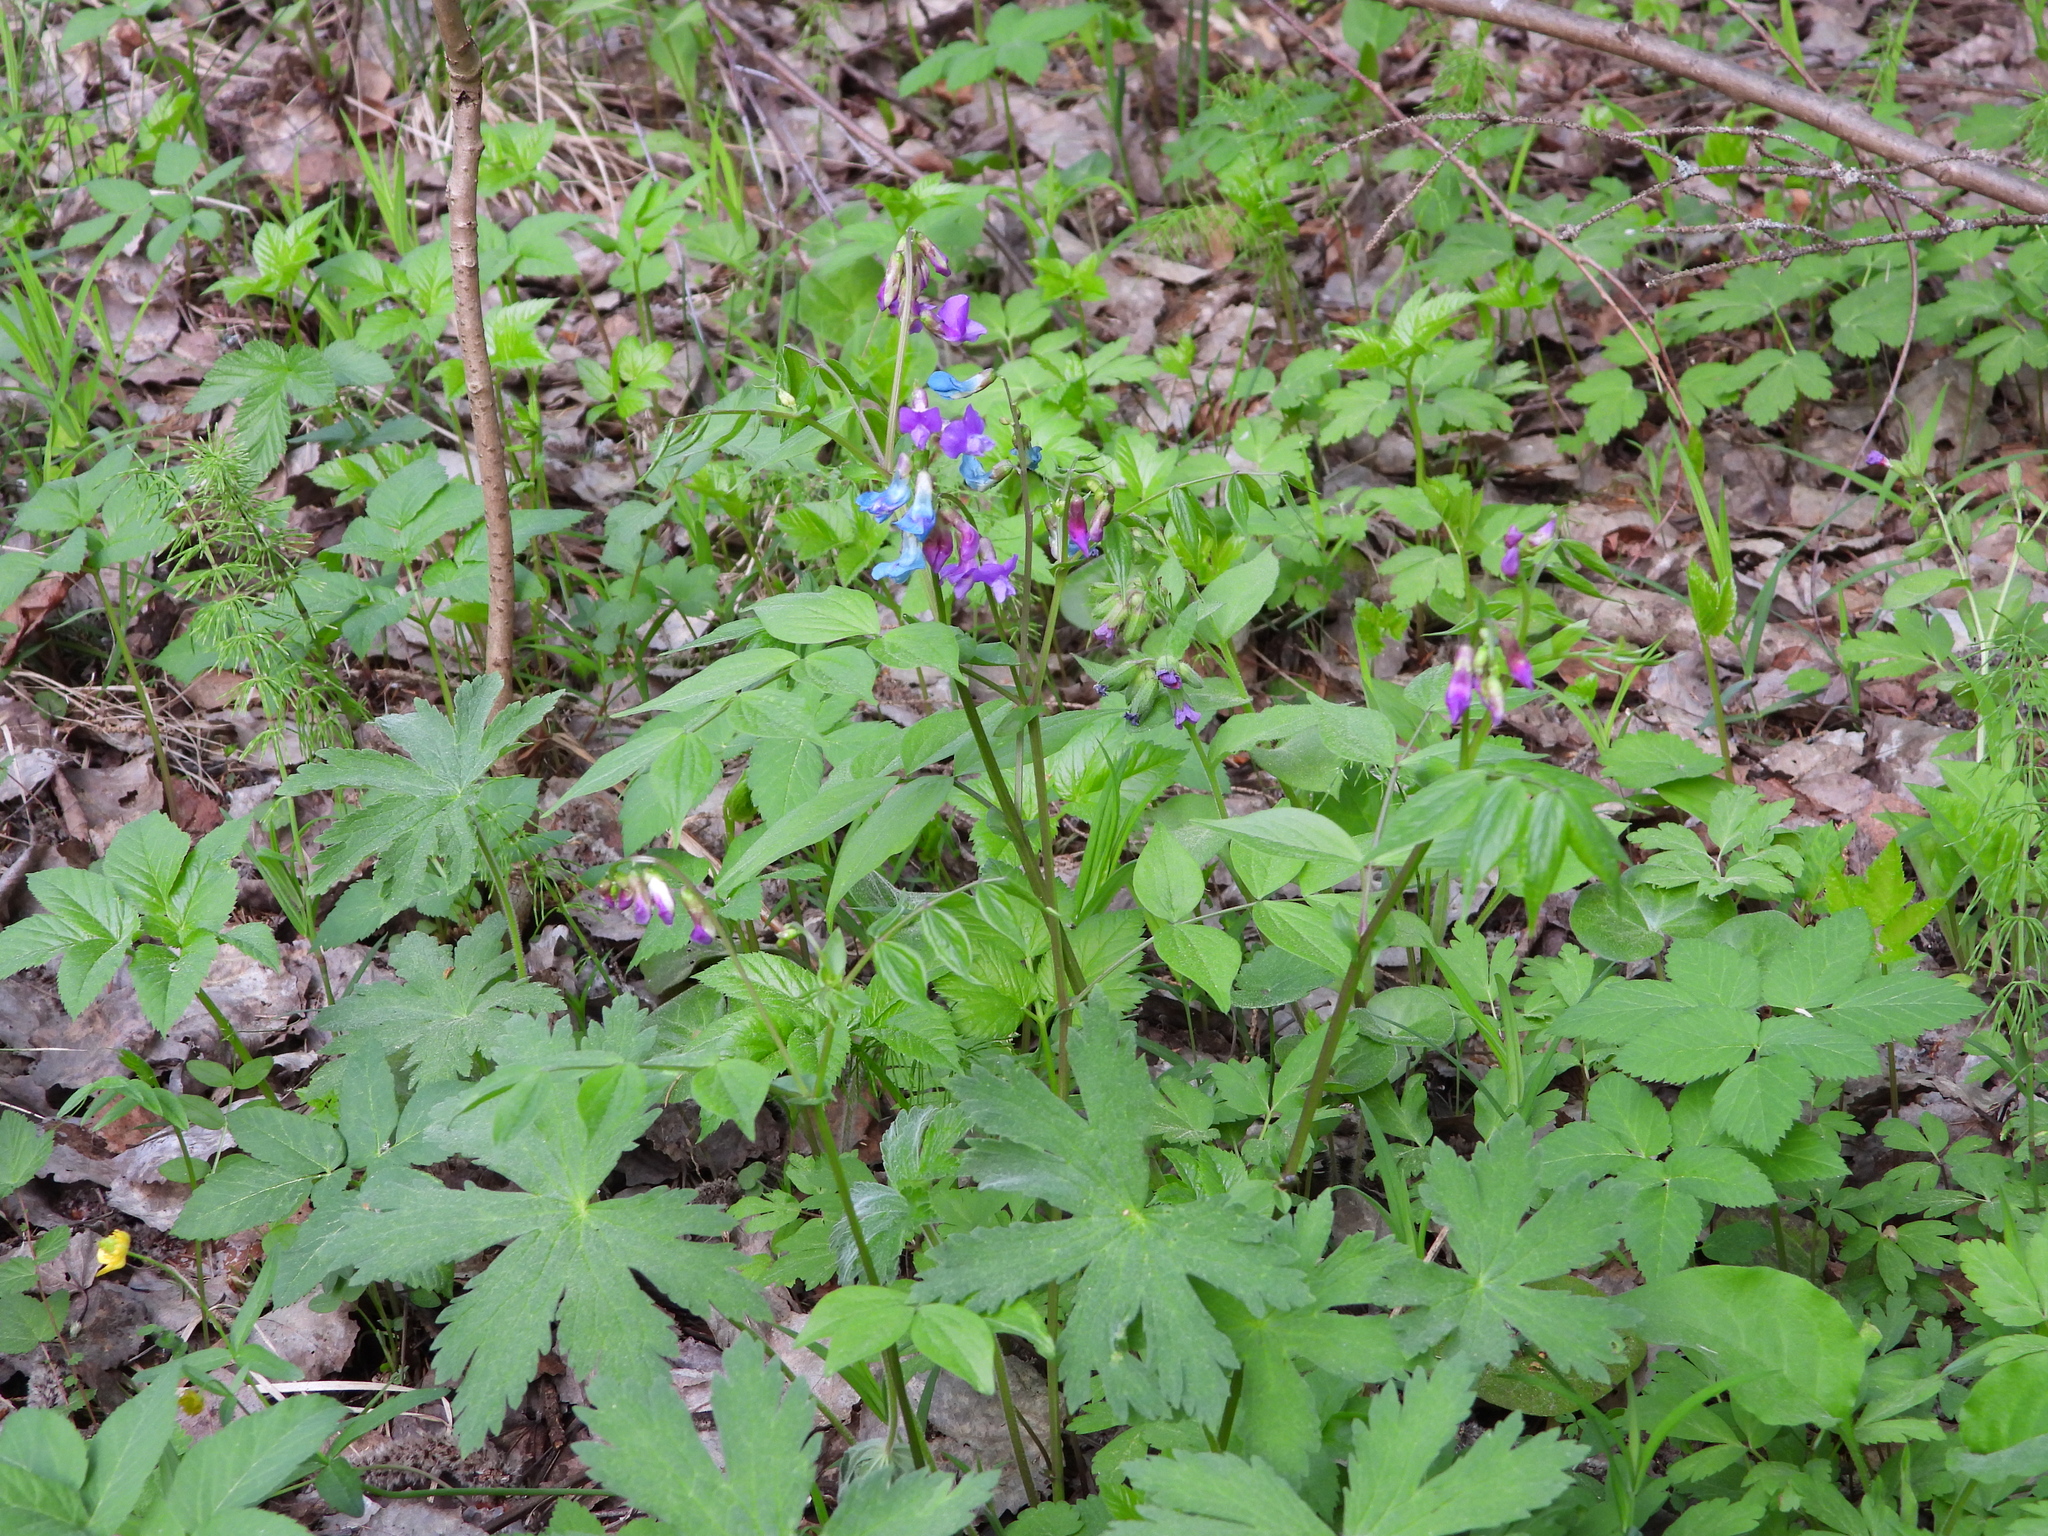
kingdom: Plantae
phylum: Tracheophyta
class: Magnoliopsida
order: Fabales
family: Fabaceae
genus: Lathyrus
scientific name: Lathyrus vernus
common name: Spring pea
